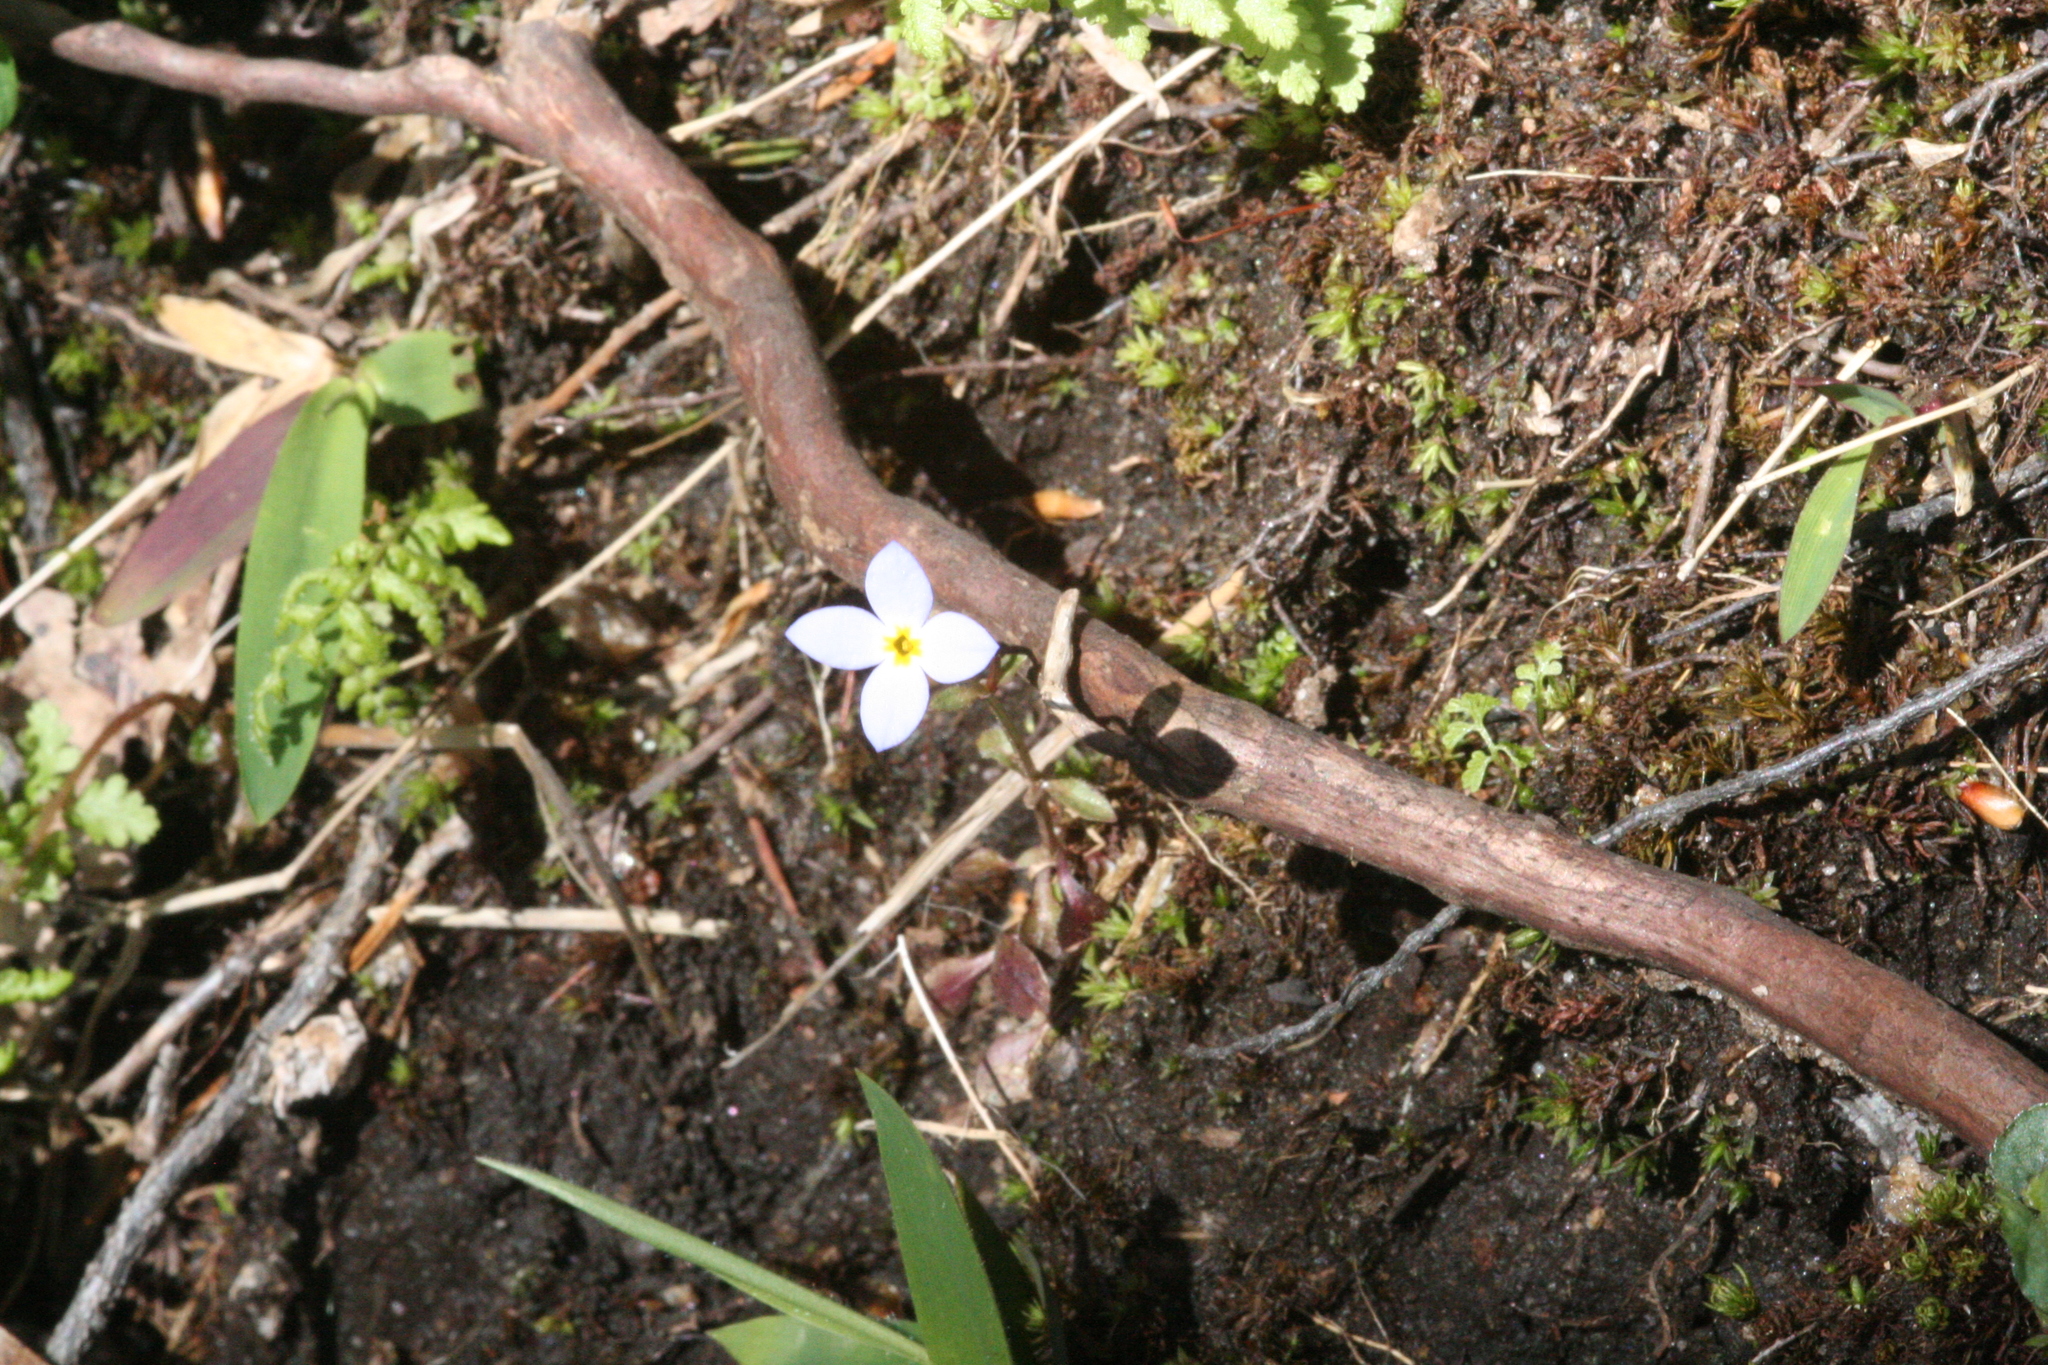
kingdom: Plantae
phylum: Tracheophyta
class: Magnoliopsida
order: Gentianales
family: Rubiaceae
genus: Houstonia
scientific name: Houstonia caerulea
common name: Bluets
